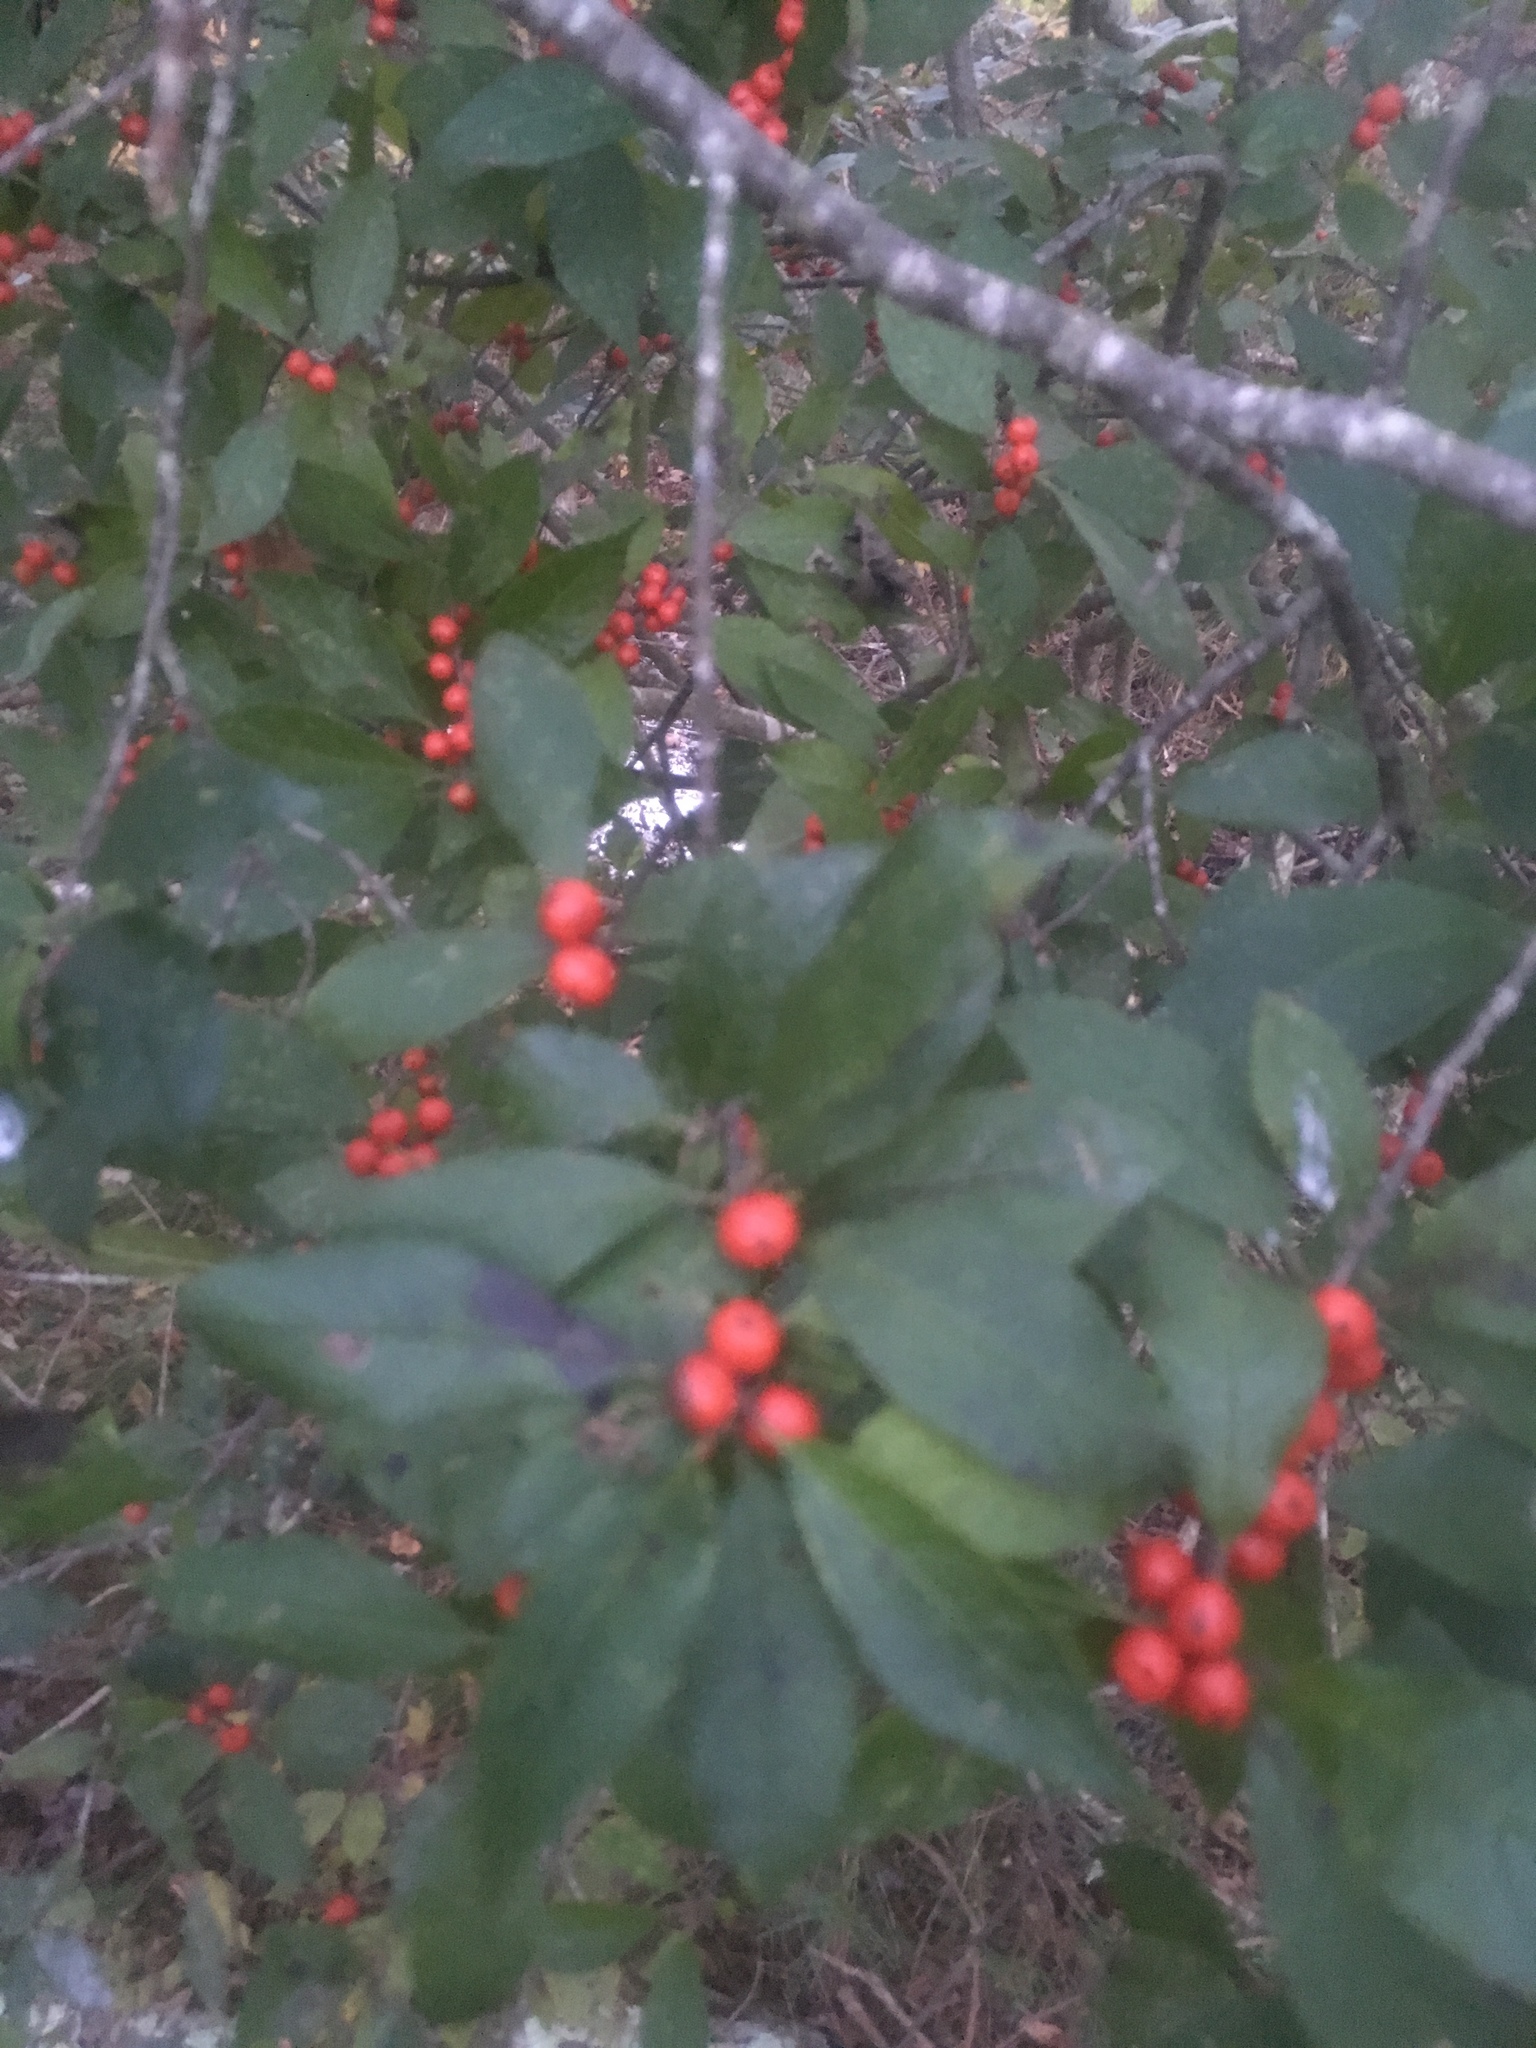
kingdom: Plantae
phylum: Tracheophyta
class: Magnoliopsida
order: Aquifoliales
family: Aquifoliaceae
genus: Ilex
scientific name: Ilex verticillata
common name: Virginia winterberry
